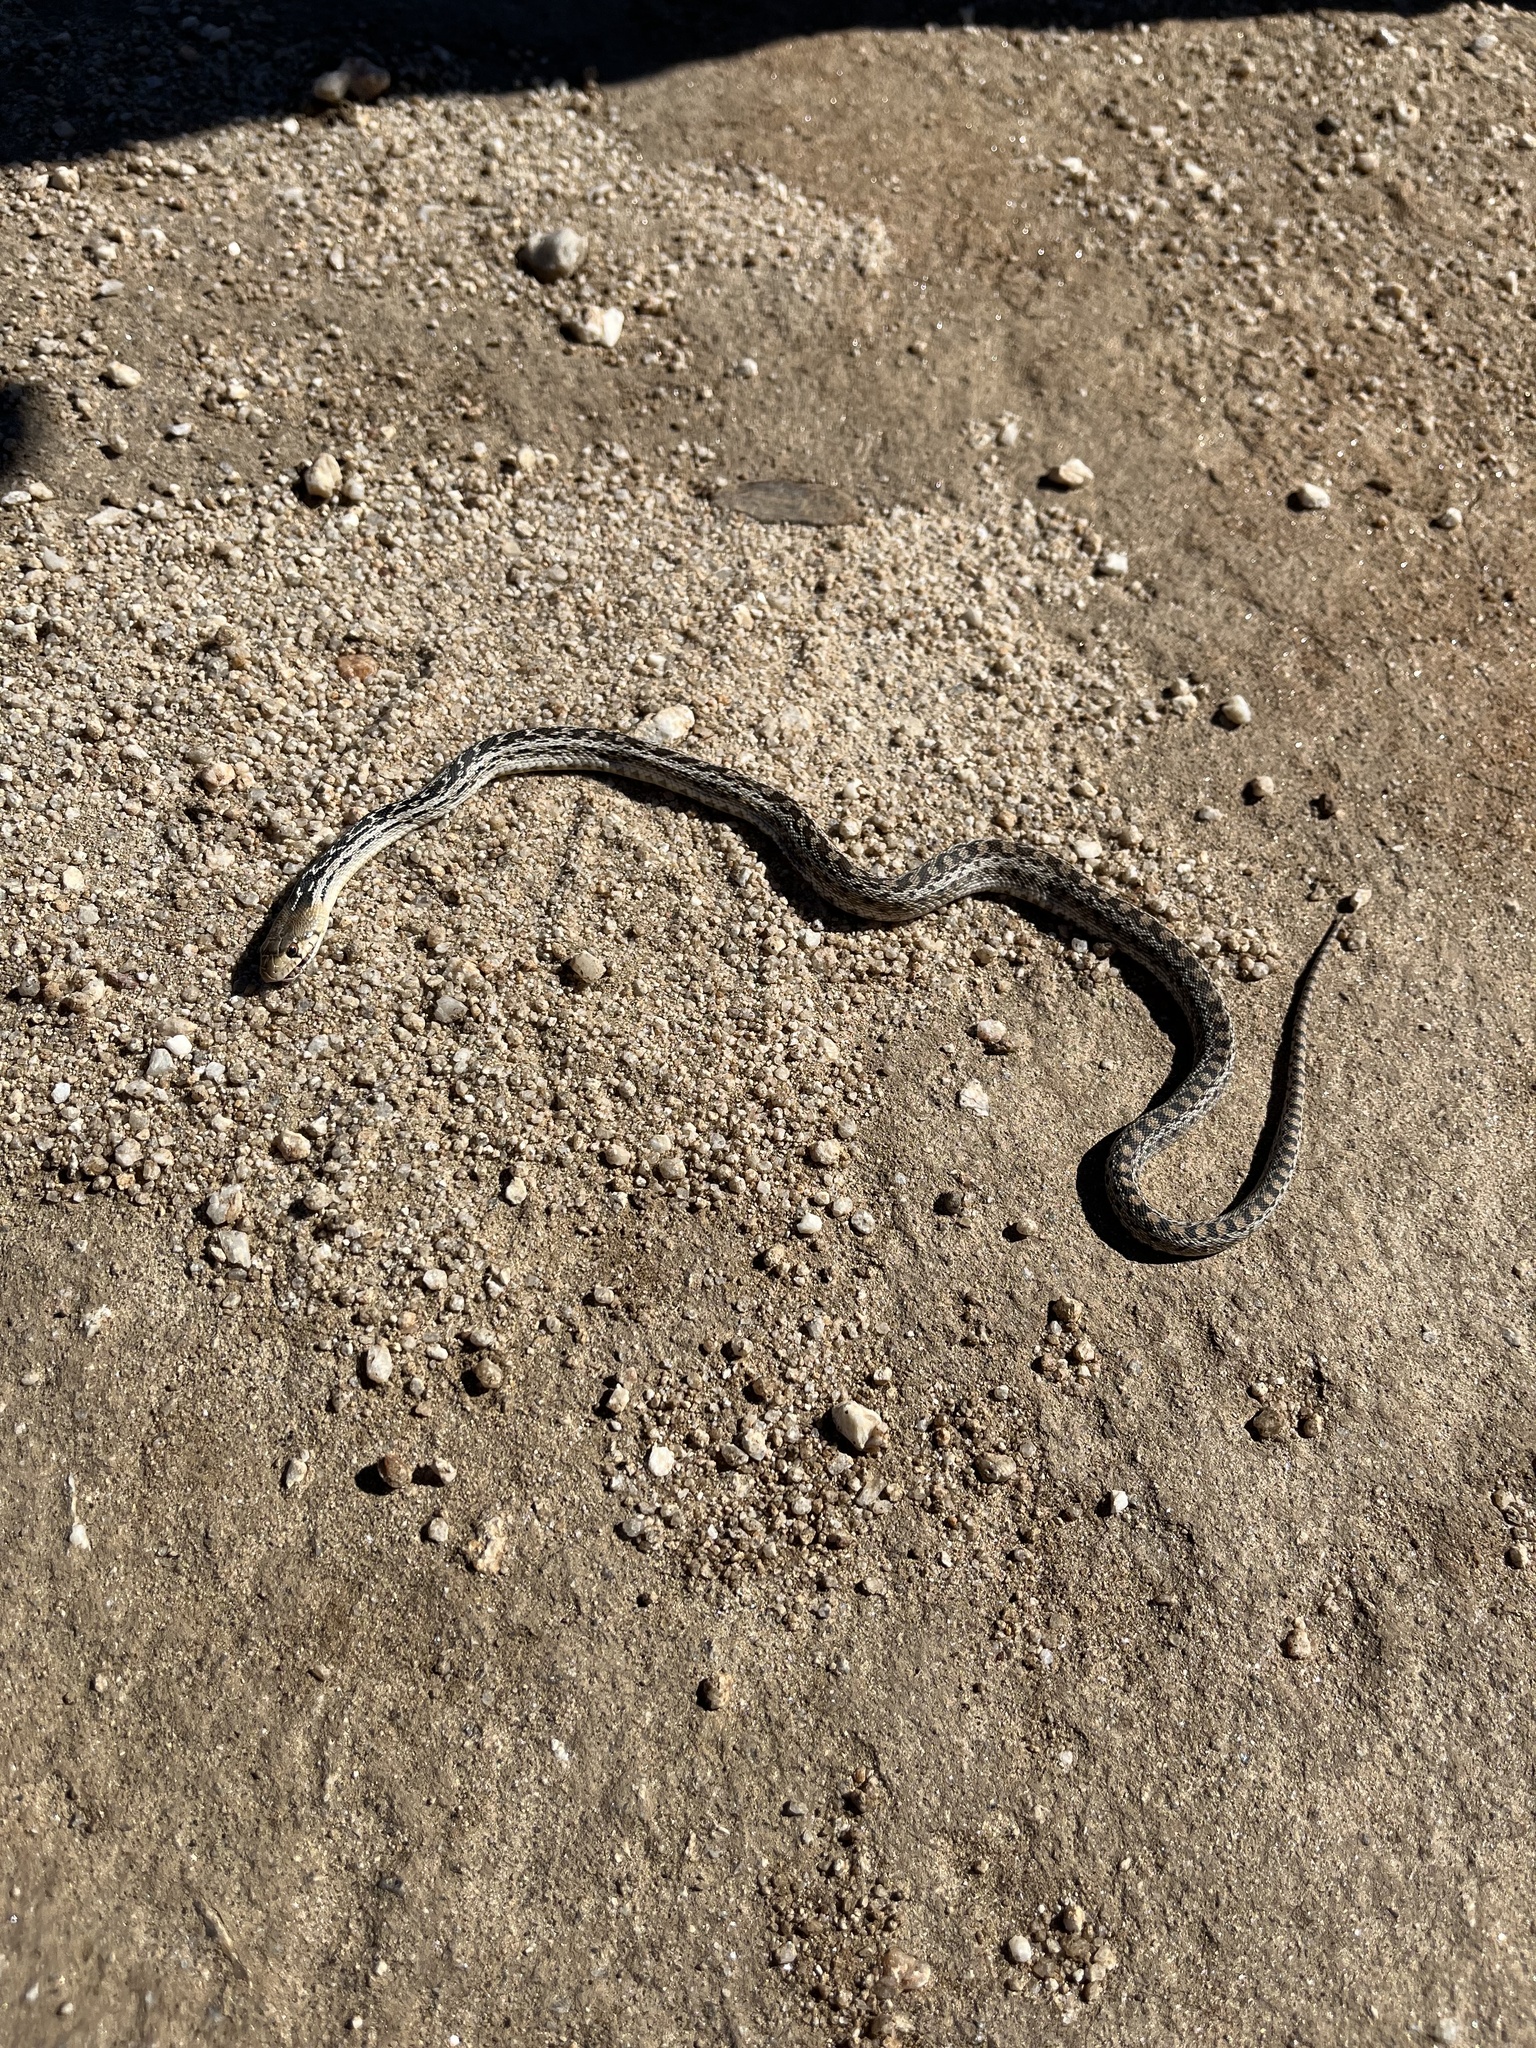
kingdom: Animalia
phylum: Chordata
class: Squamata
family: Colubridae
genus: Pituophis
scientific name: Pituophis catenifer
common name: Gopher snake
